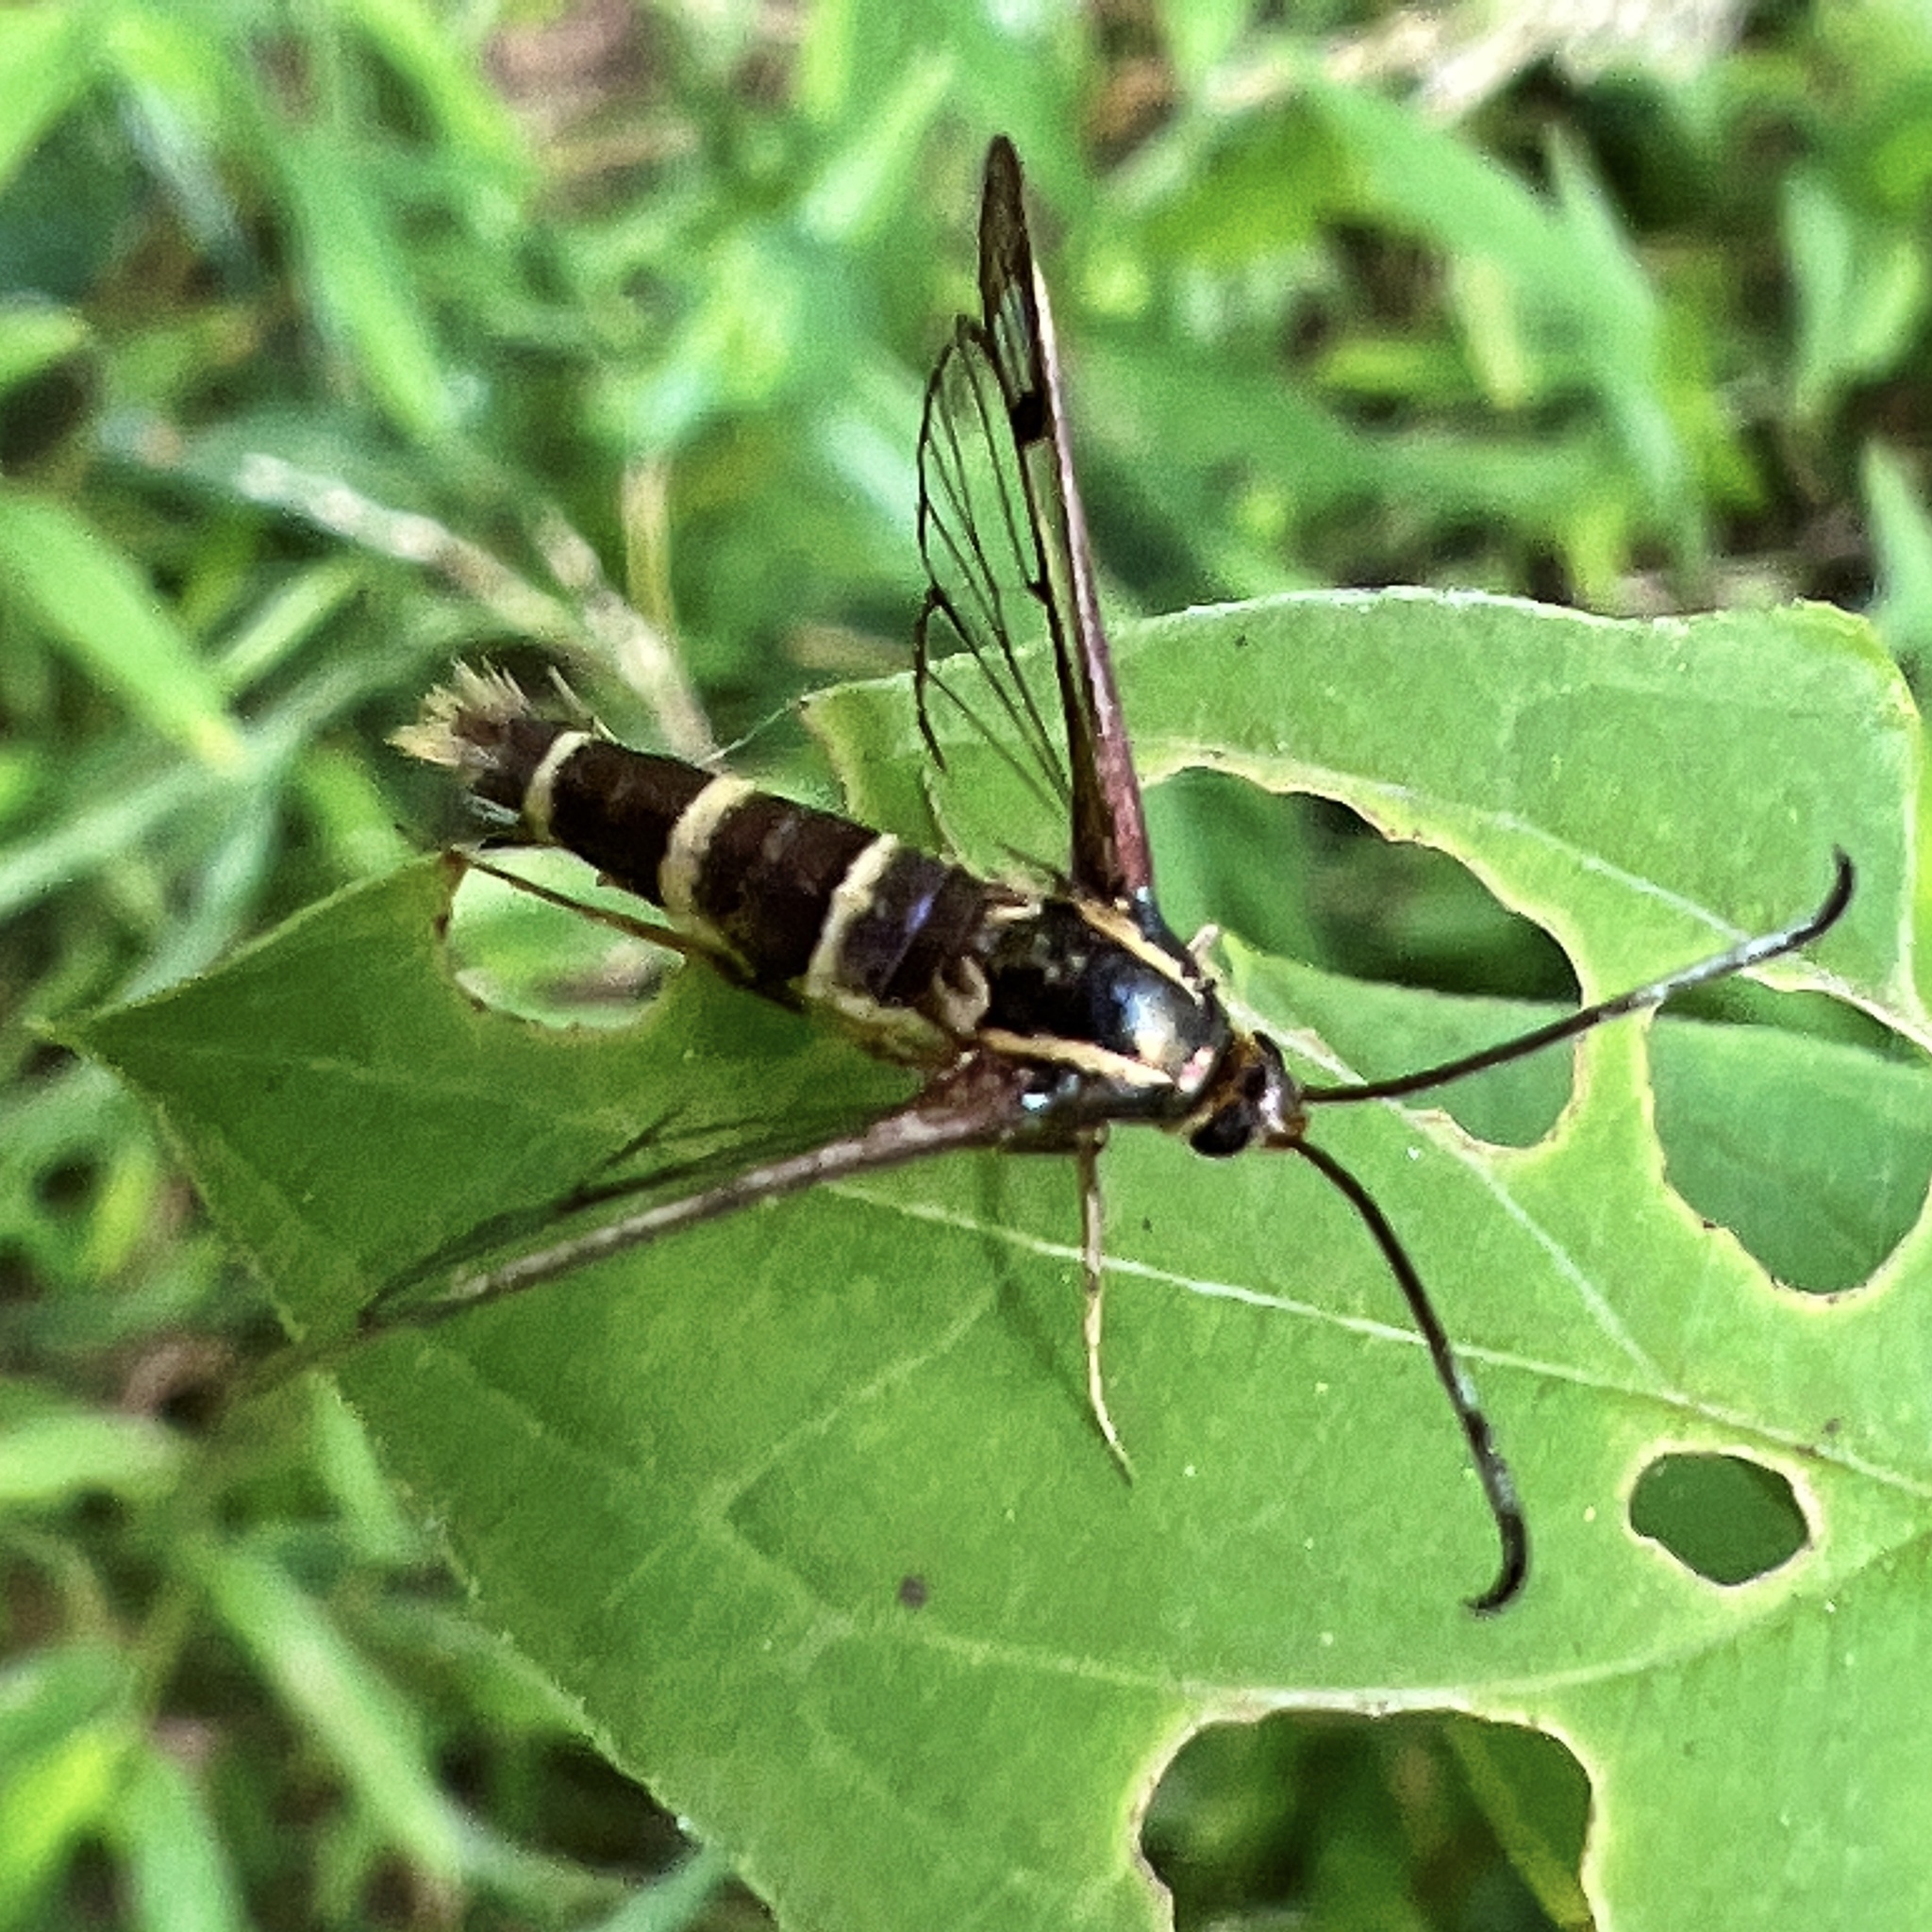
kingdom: Animalia
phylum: Arthropoda
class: Insecta
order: Lepidoptera
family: Sesiidae
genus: Carmenta
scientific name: Carmenta bassiformis
